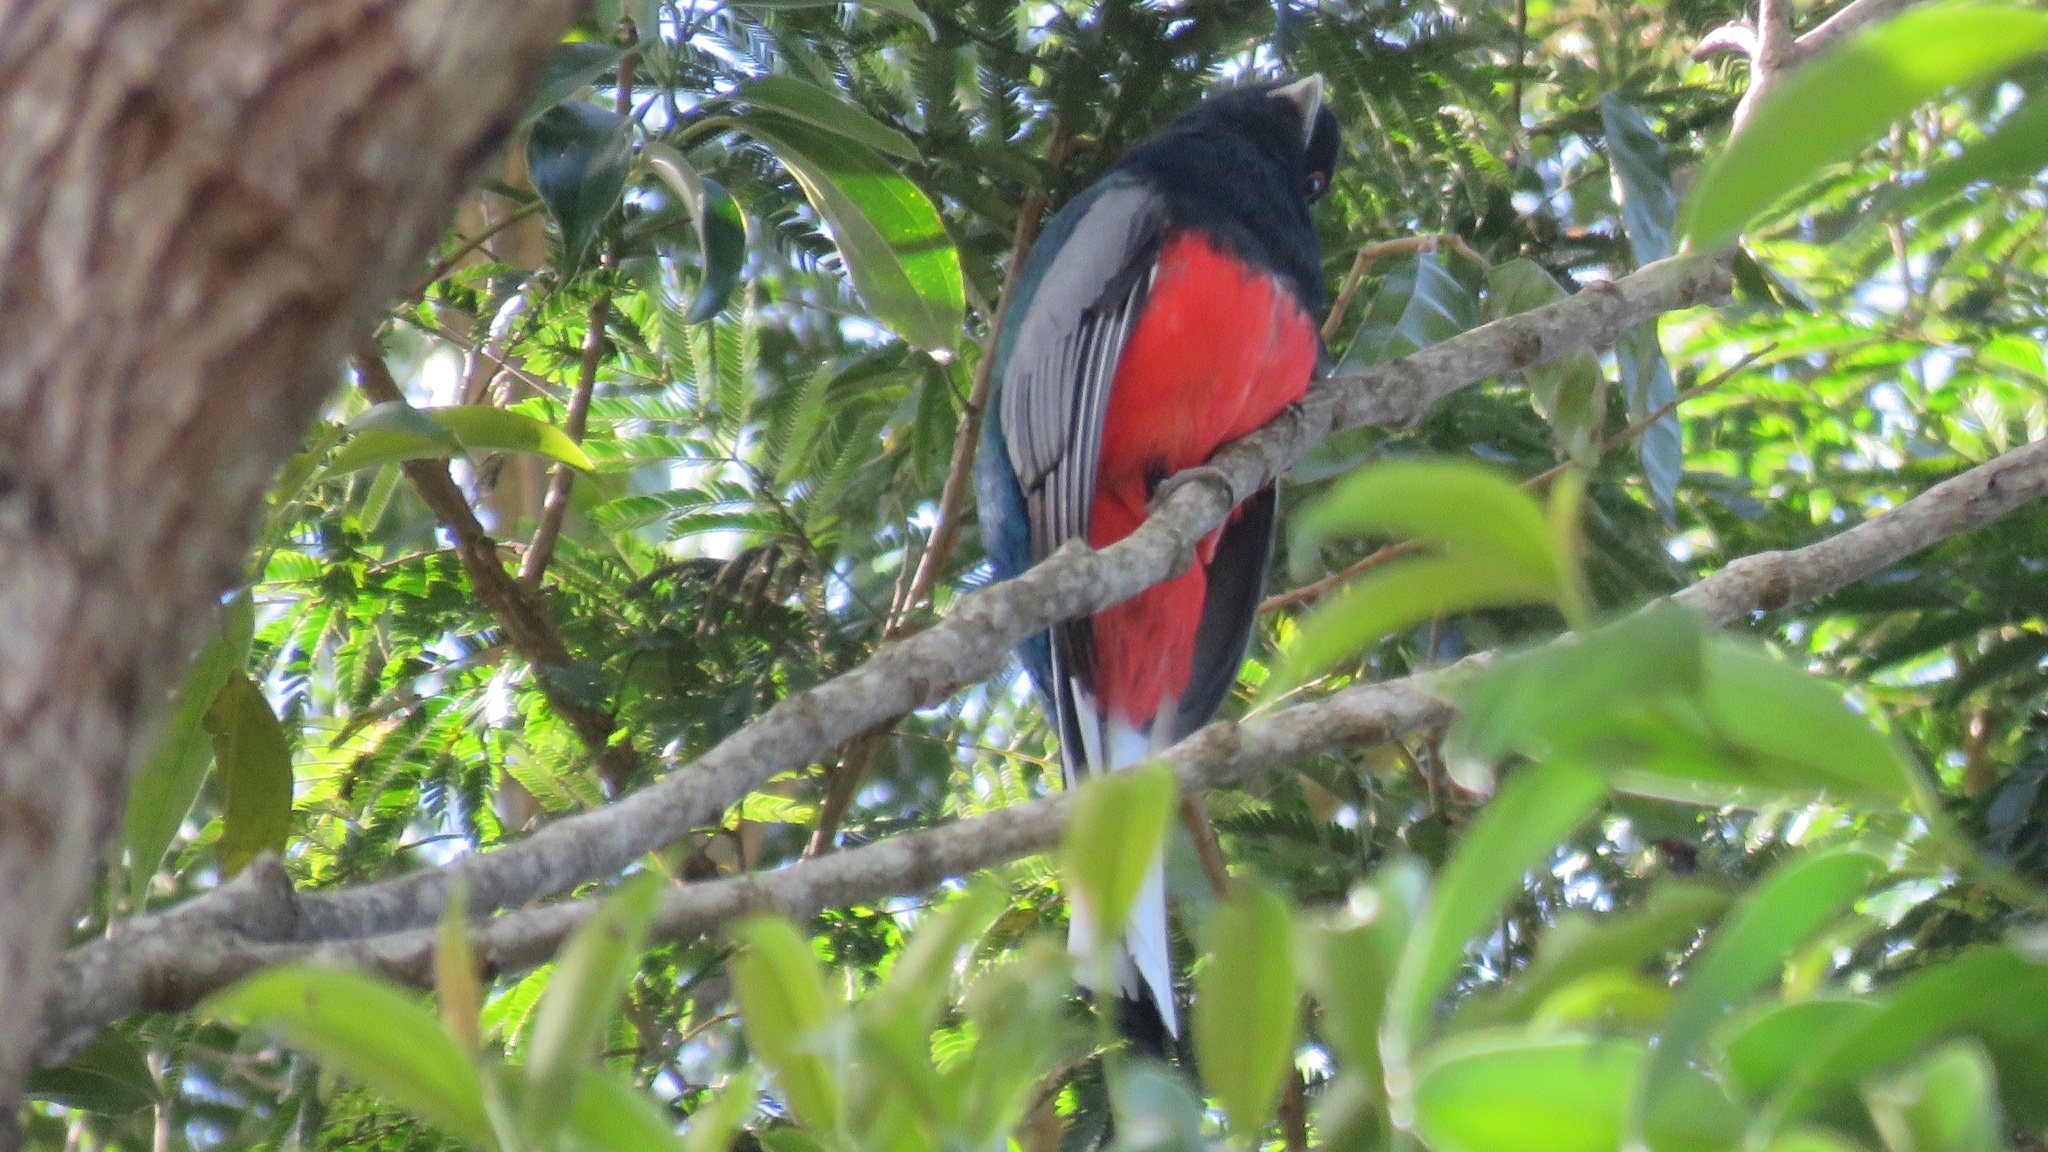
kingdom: Animalia
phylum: Chordata
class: Aves
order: Trogoniformes
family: Trogonidae
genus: Trogon
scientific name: Trogon surrucura
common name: Surucua trogon
